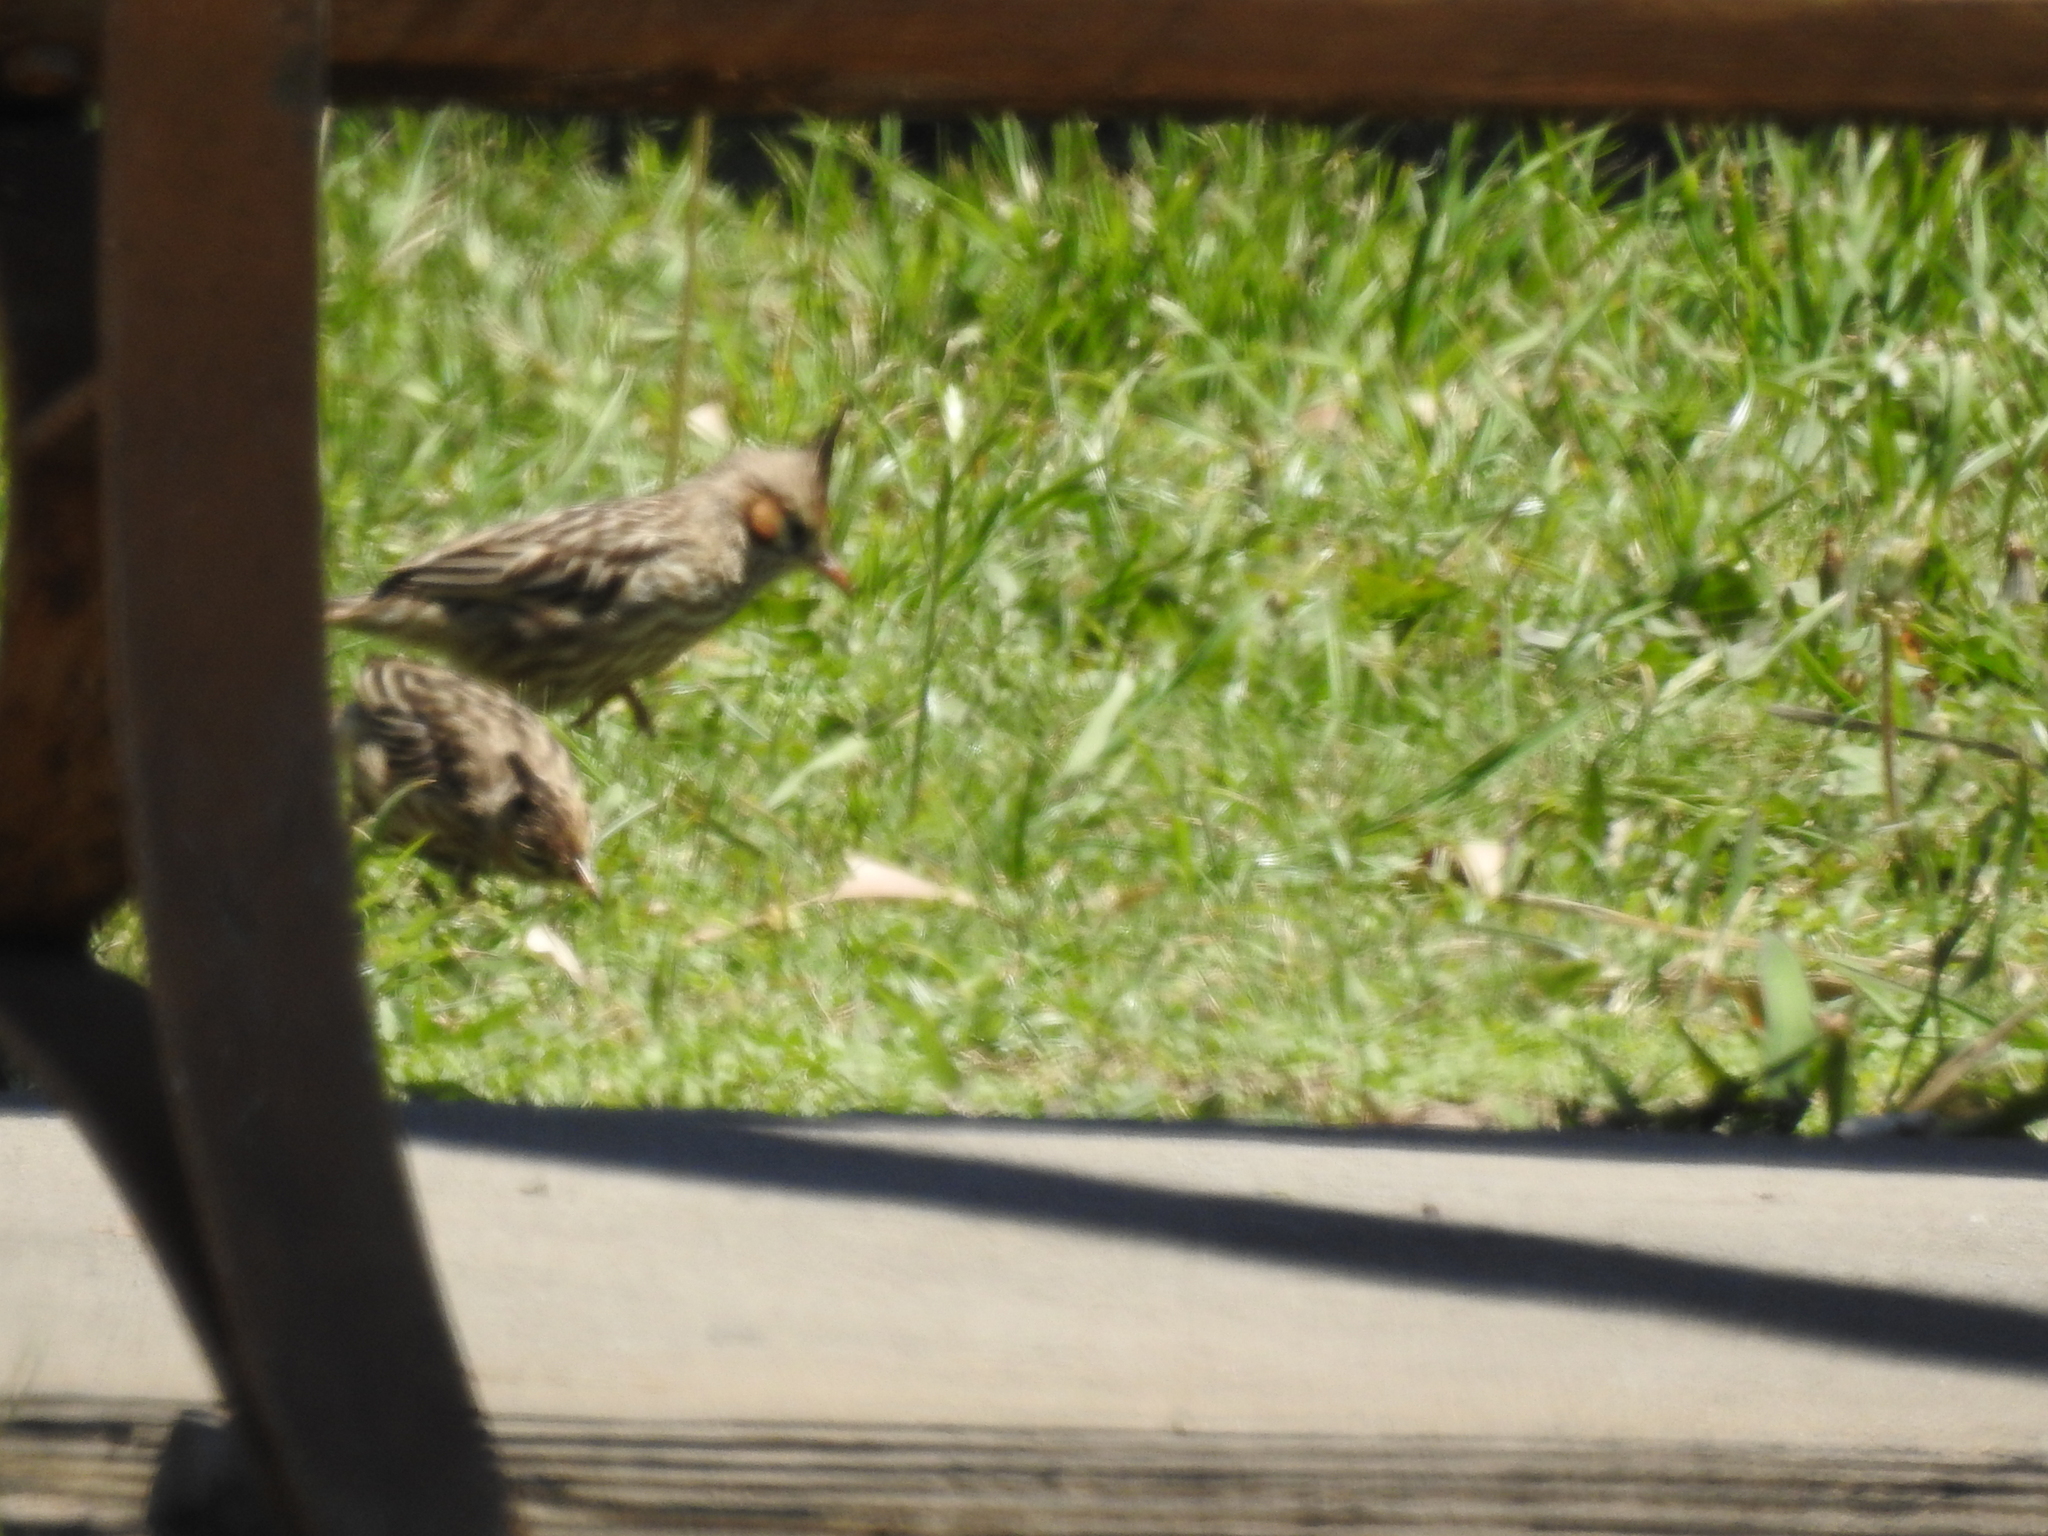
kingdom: Animalia
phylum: Chordata
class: Aves
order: Passeriformes
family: Furnariidae
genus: Coryphistera
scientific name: Coryphistera alaudina
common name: Lark-like brushrunner
